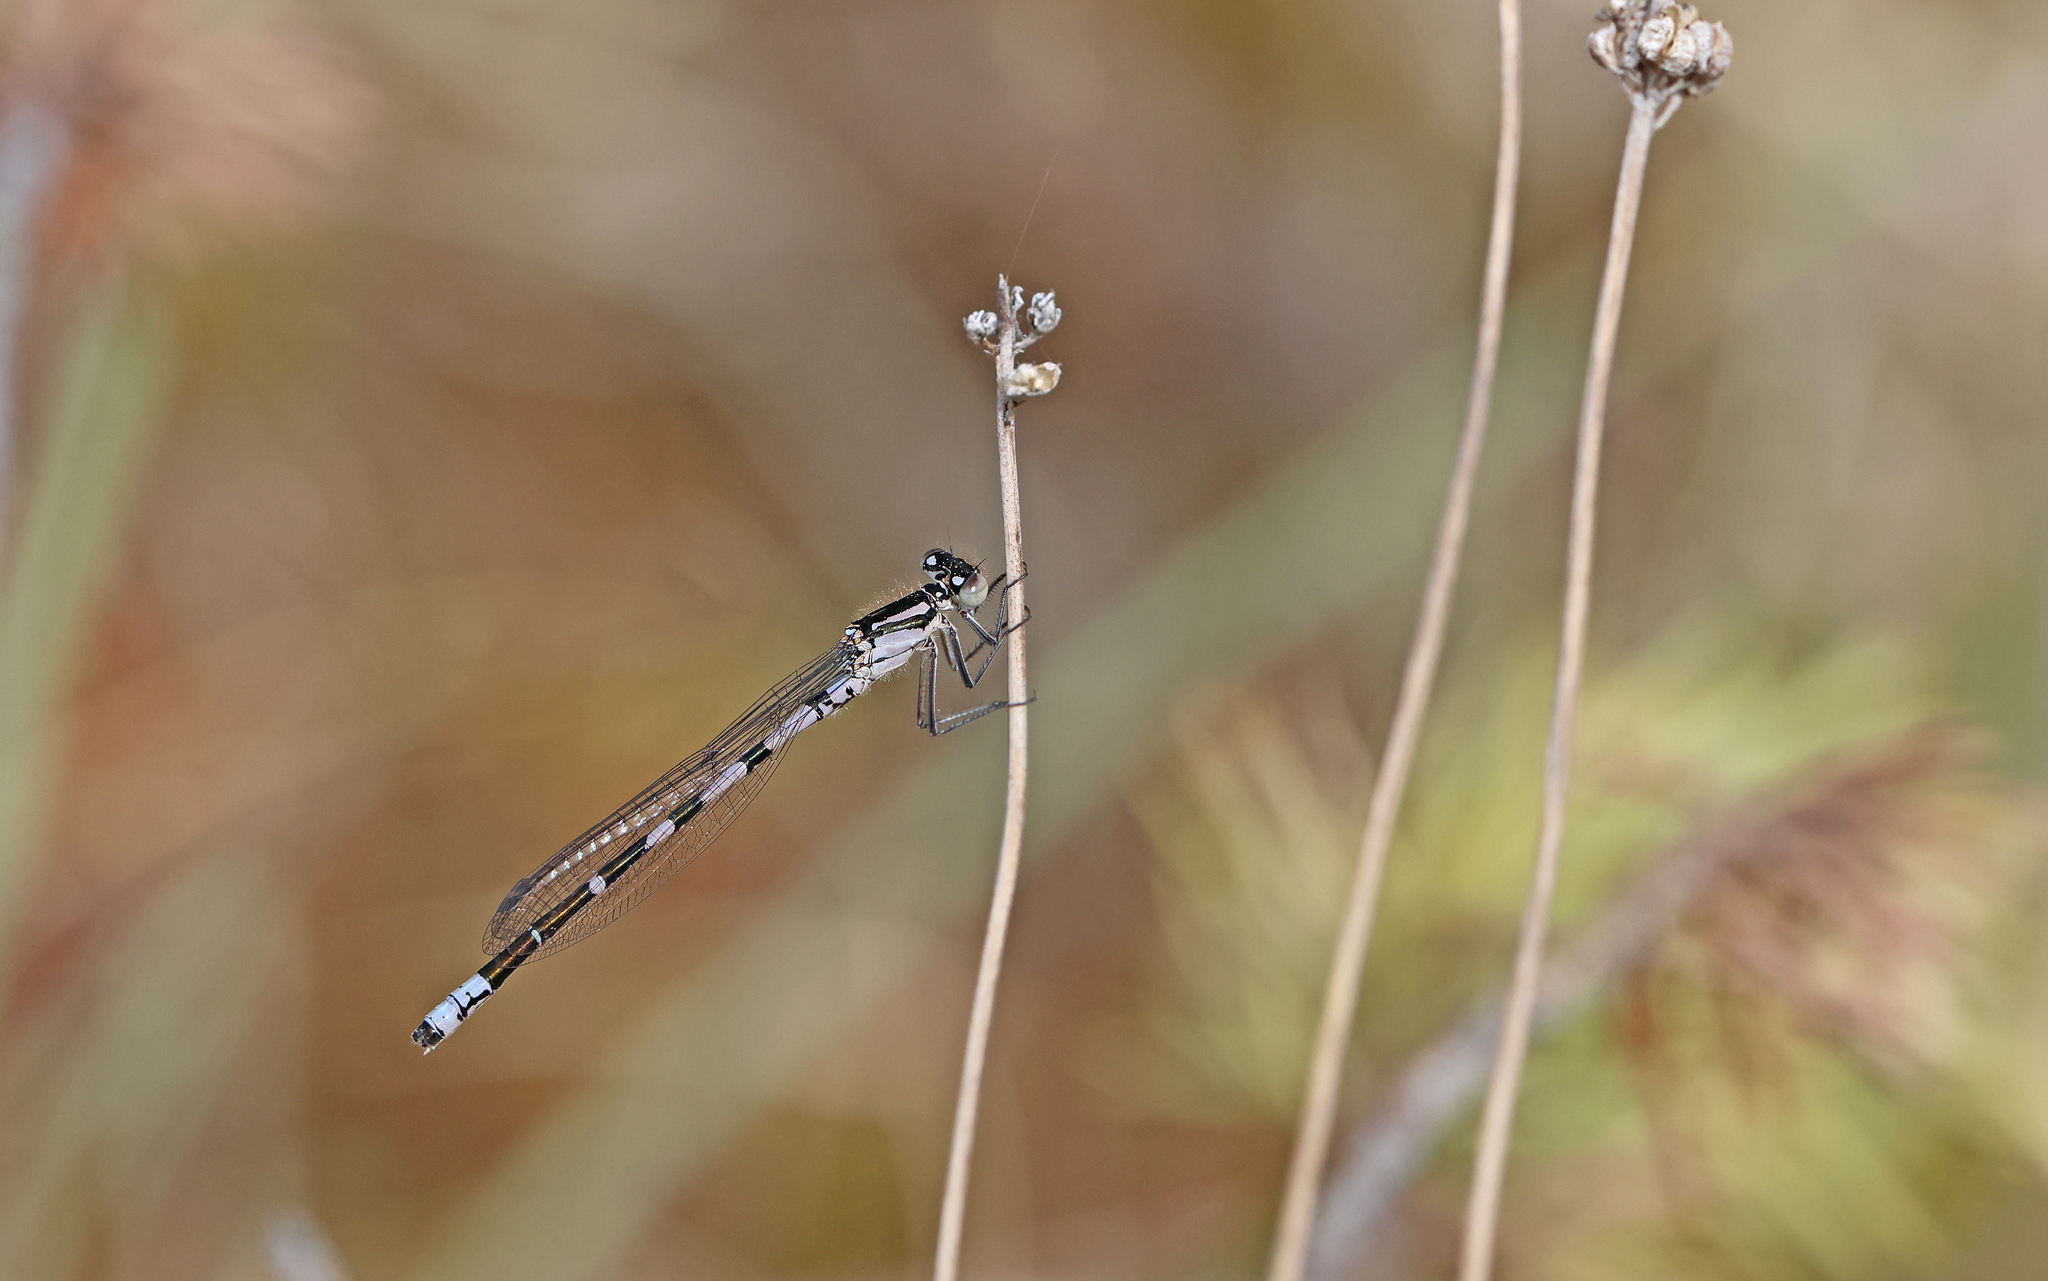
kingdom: Animalia
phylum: Arthropoda
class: Insecta
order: Odonata
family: Coenagrionidae
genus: Coenagrion
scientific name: Coenagrion hastulatum
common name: Spearhead bluet
